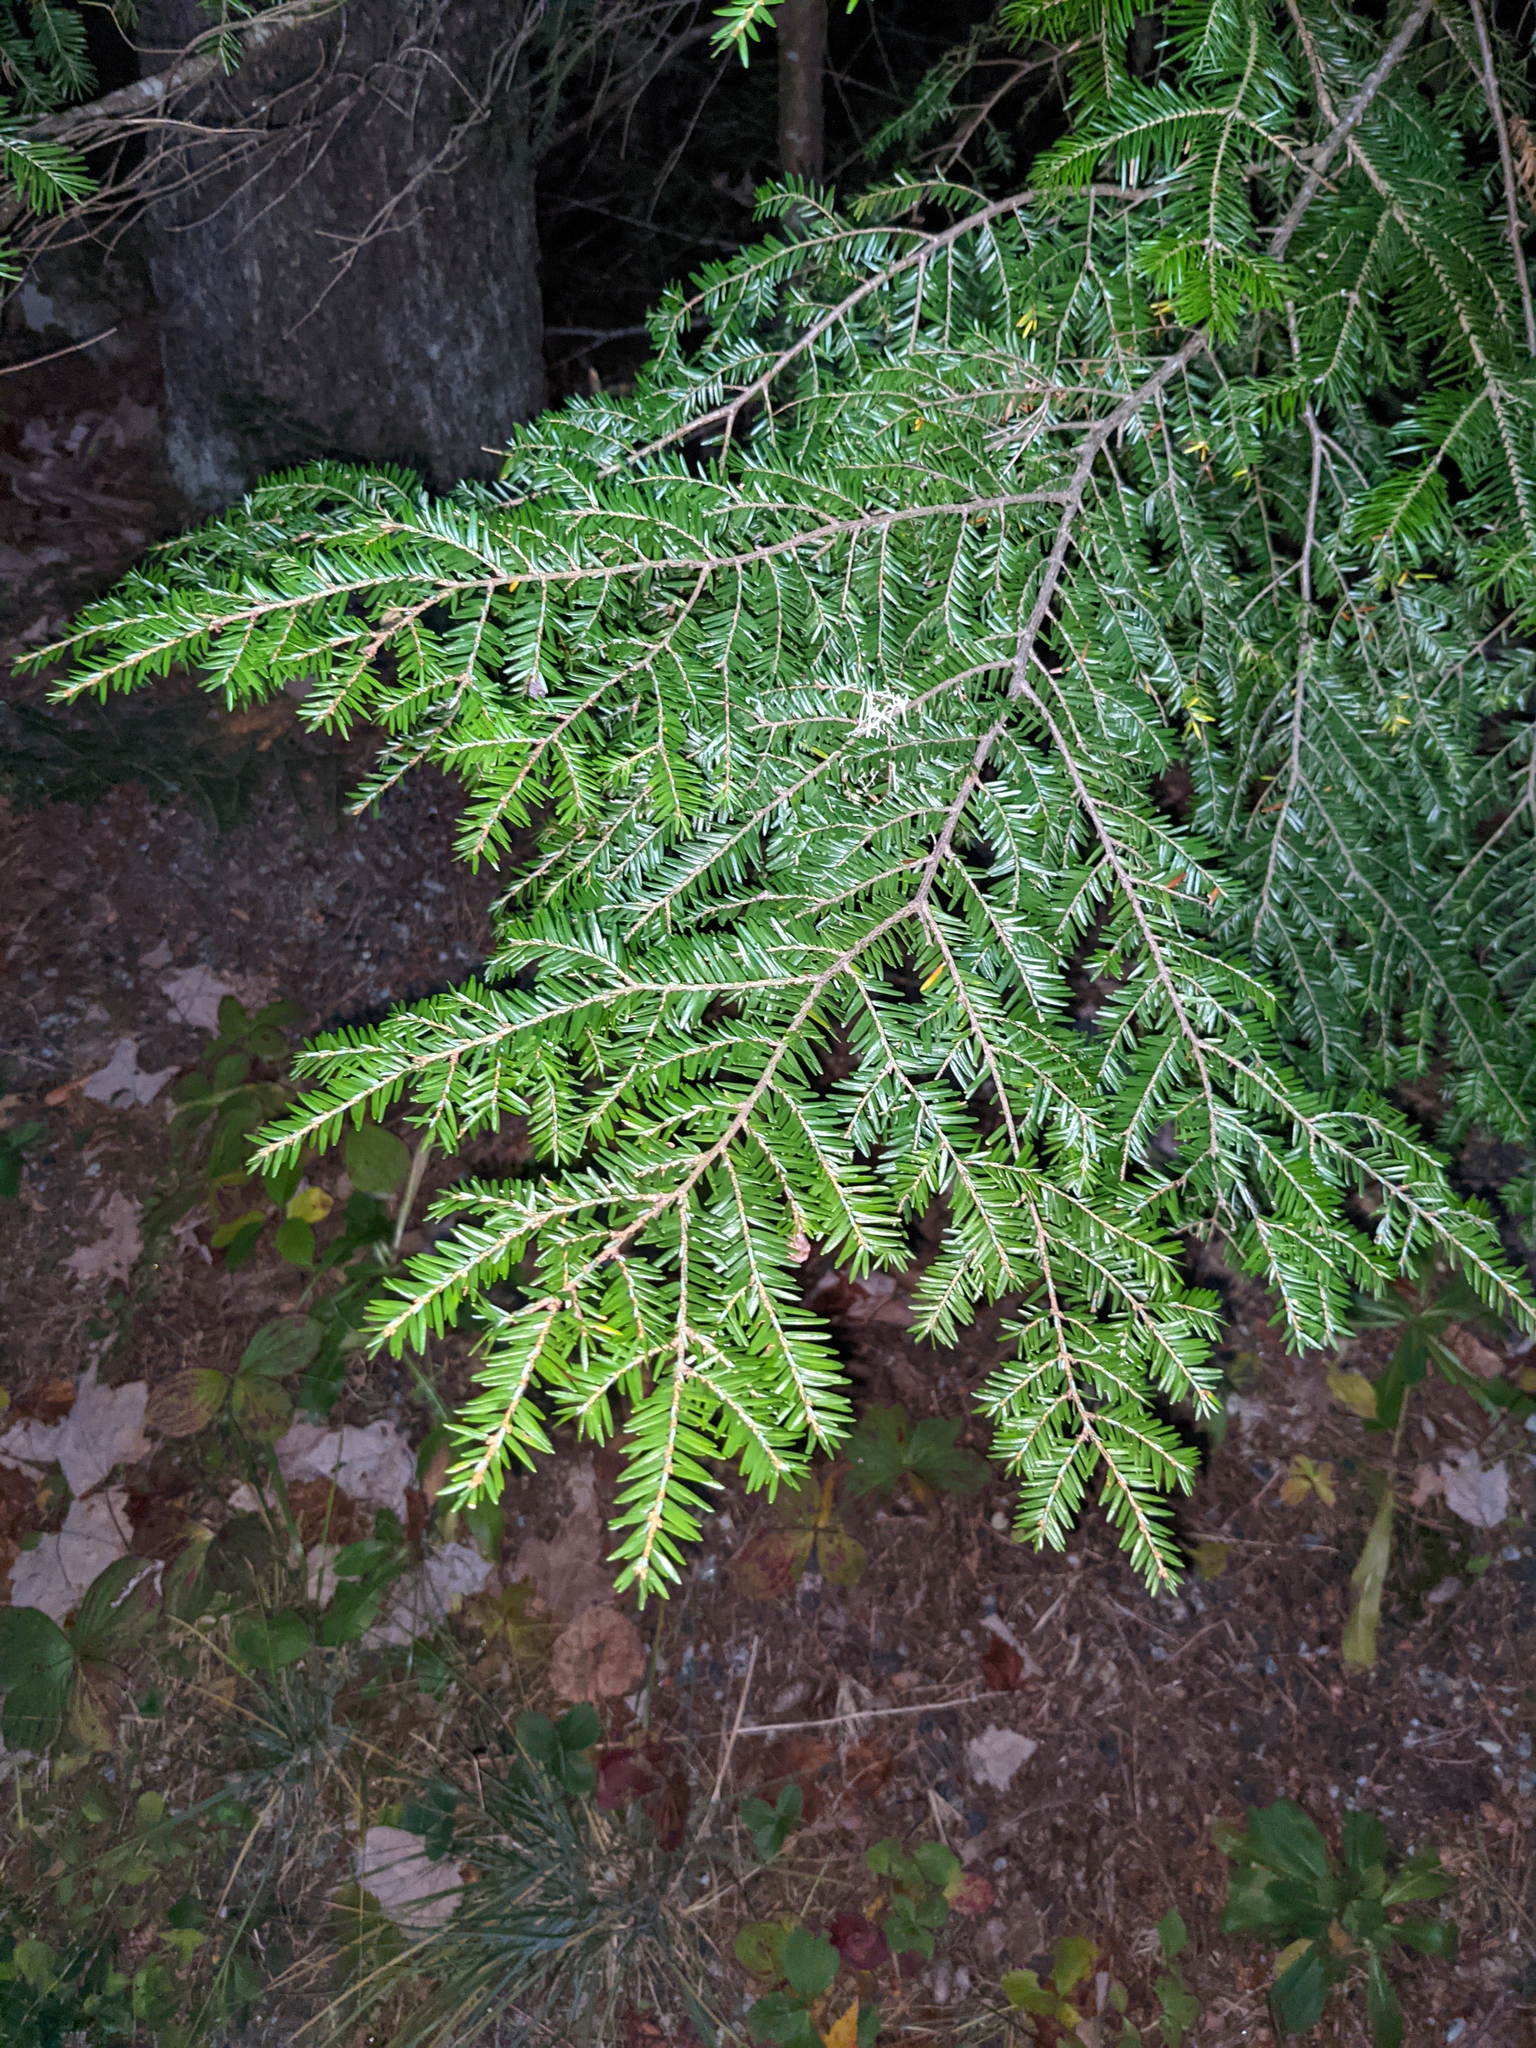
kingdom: Plantae
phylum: Tracheophyta
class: Pinopsida
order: Pinales
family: Pinaceae
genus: Tsuga
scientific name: Tsuga canadensis
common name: Eastern hemlock
